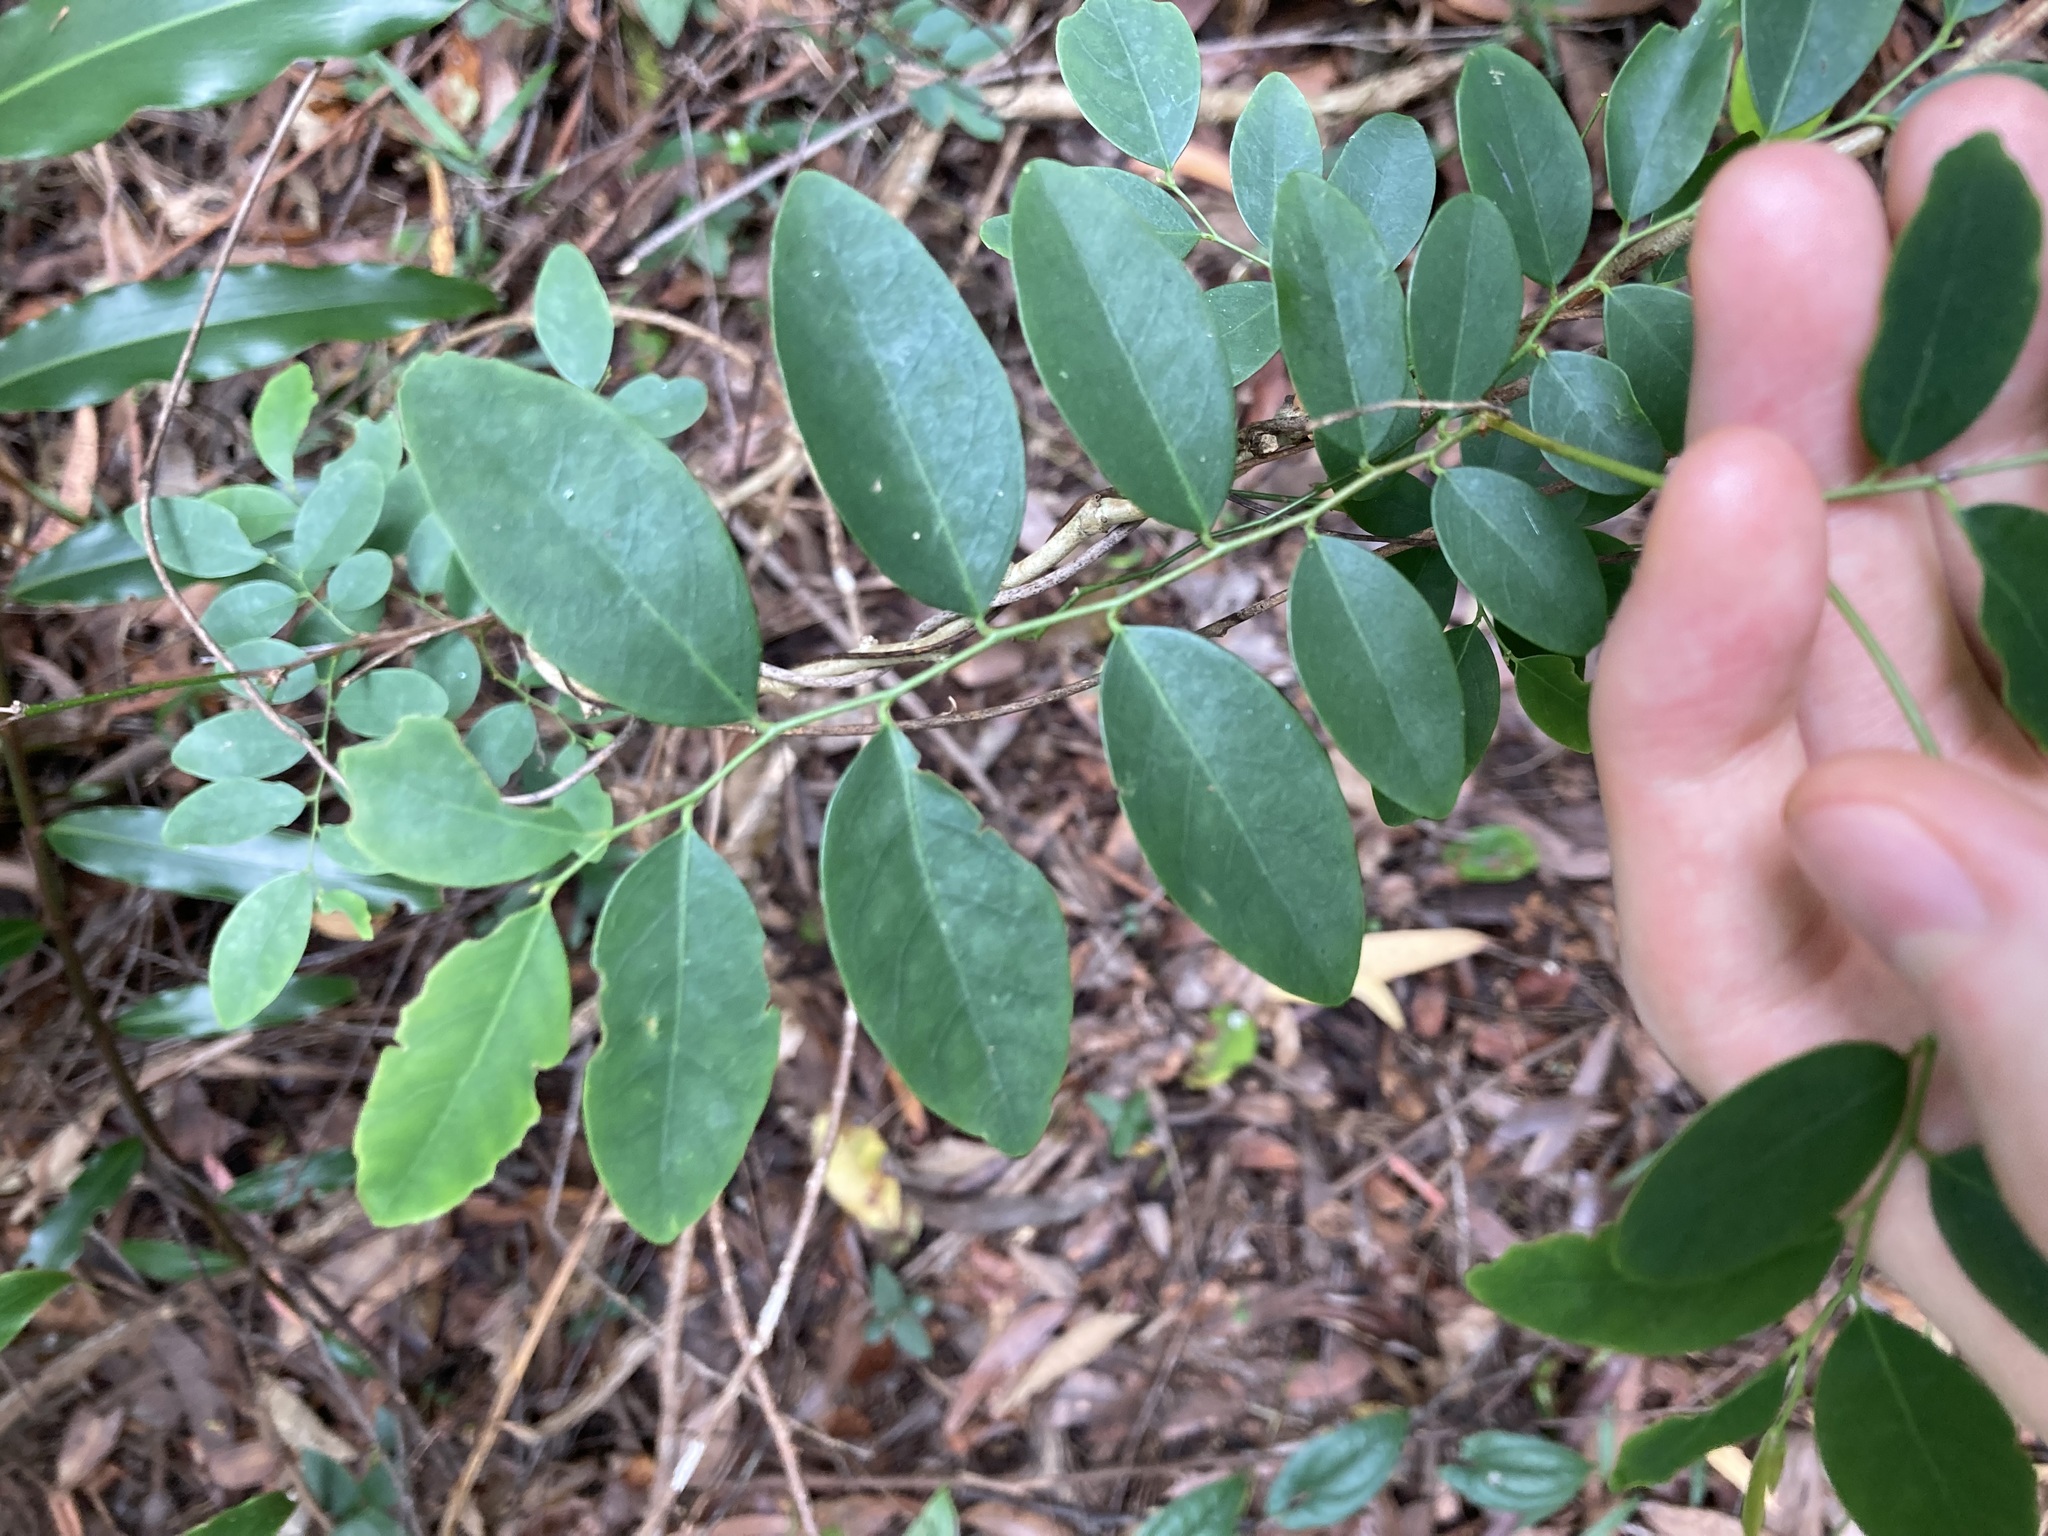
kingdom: Plantae
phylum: Tracheophyta
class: Magnoliopsida
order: Malpighiales
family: Phyllanthaceae
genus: Breynia
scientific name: Breynia oblongifolia
